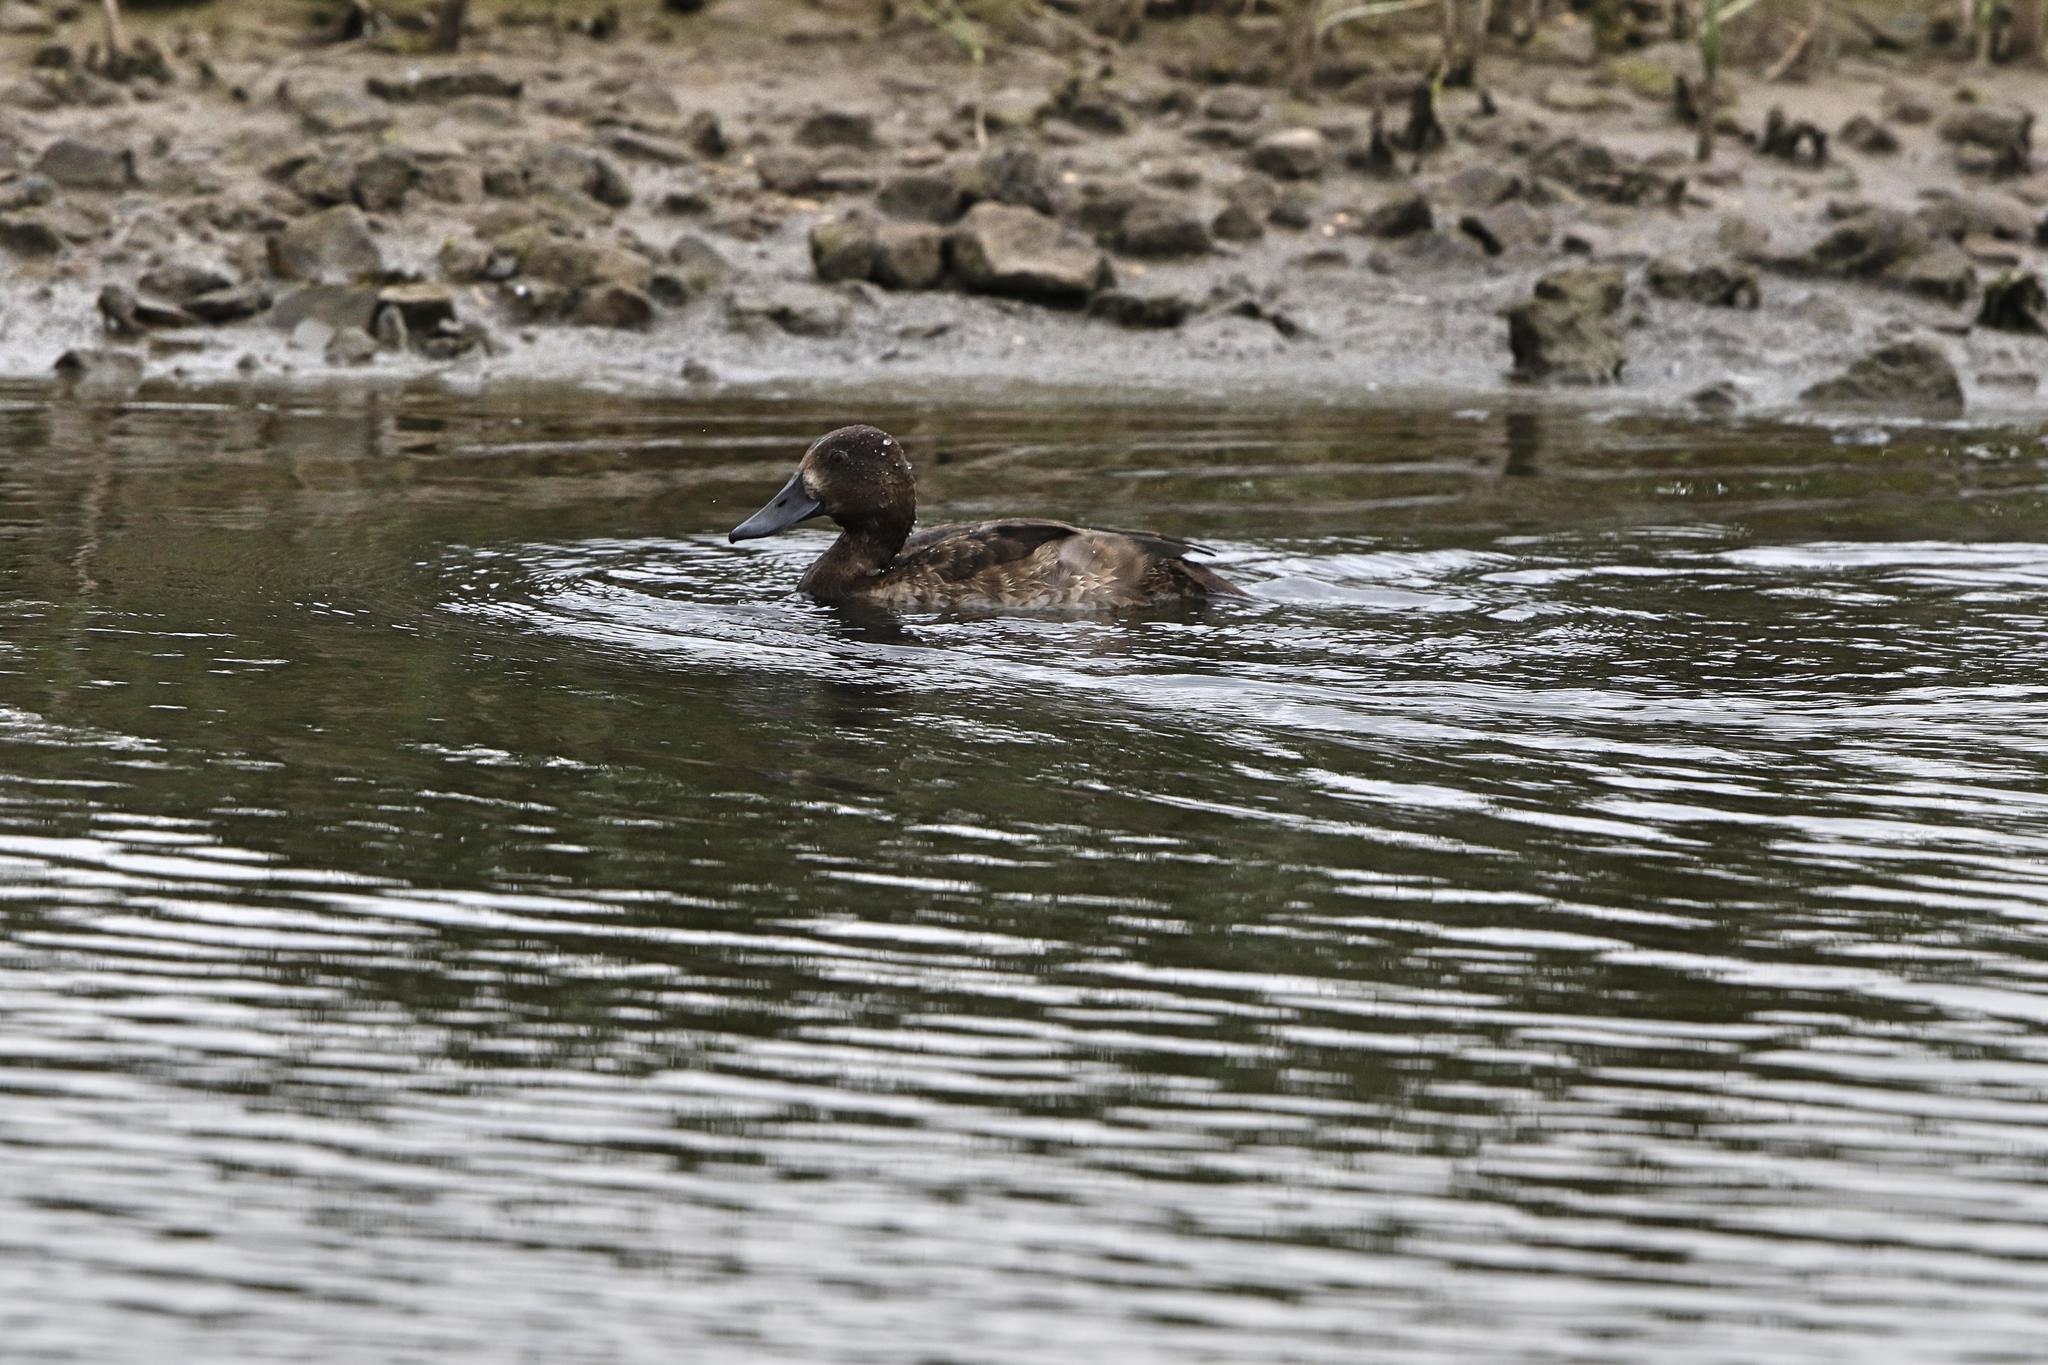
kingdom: Animalia
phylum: Chordata
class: Aves
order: Anseriformes
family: Anatidae
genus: Aythya
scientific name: Aythya fuligula
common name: Tufted duck
